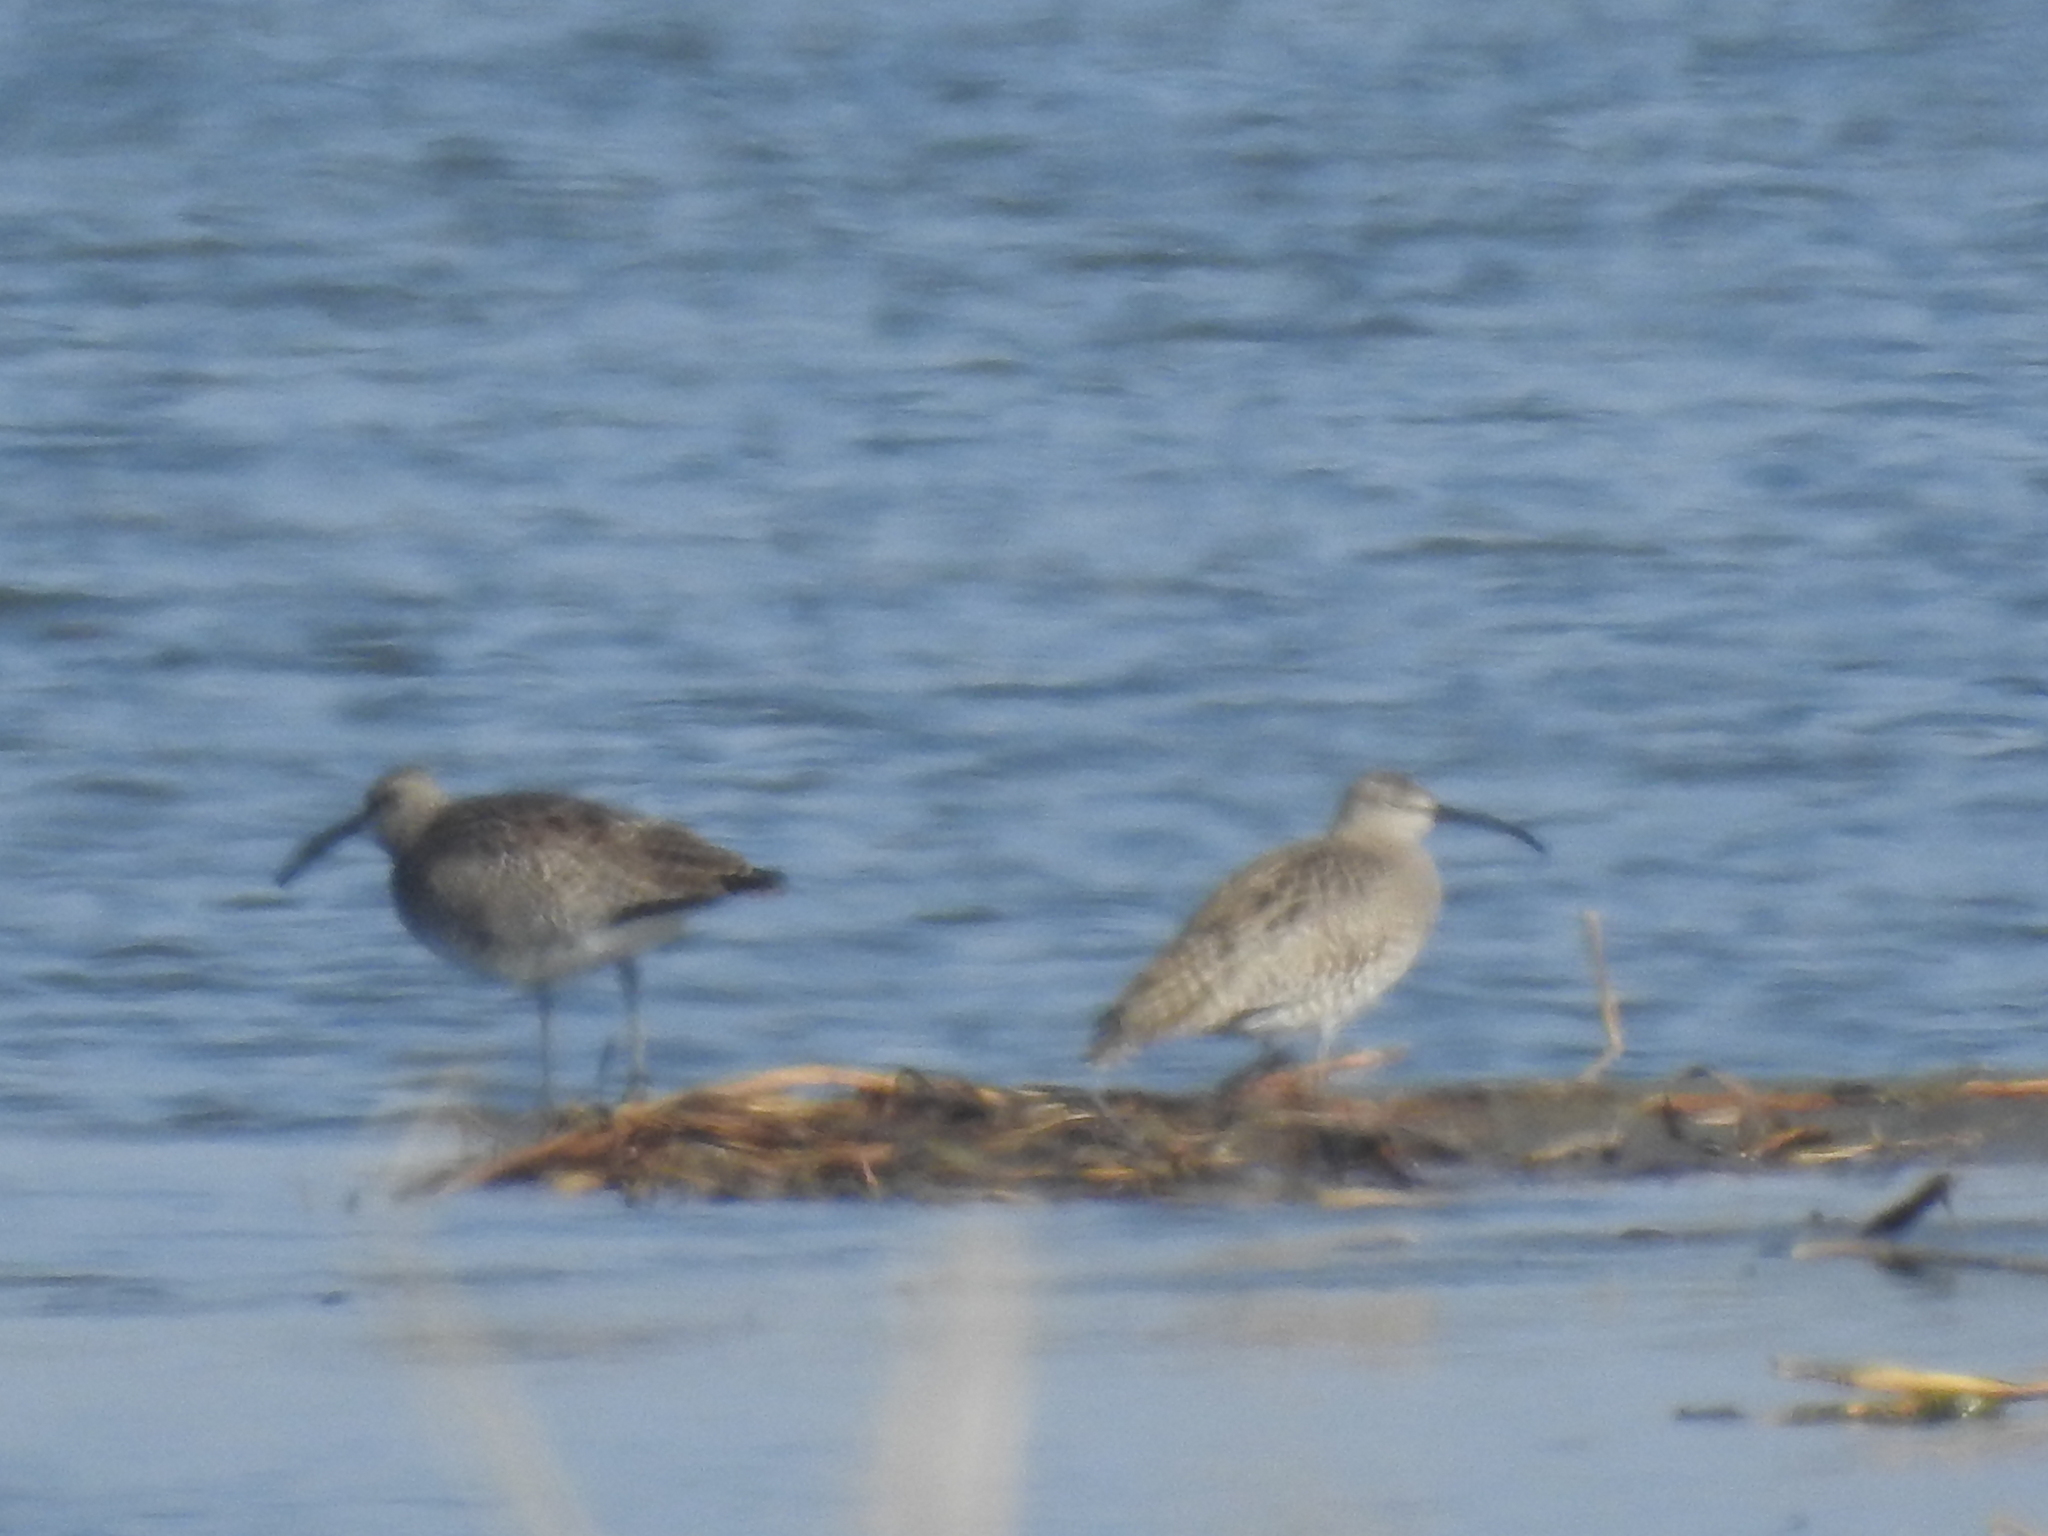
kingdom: Animalia
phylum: Chordata
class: Aves
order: Charadriiformes
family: Scolopacidae
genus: Numenius
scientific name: Numenius phaeopus
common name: Whimbrel
